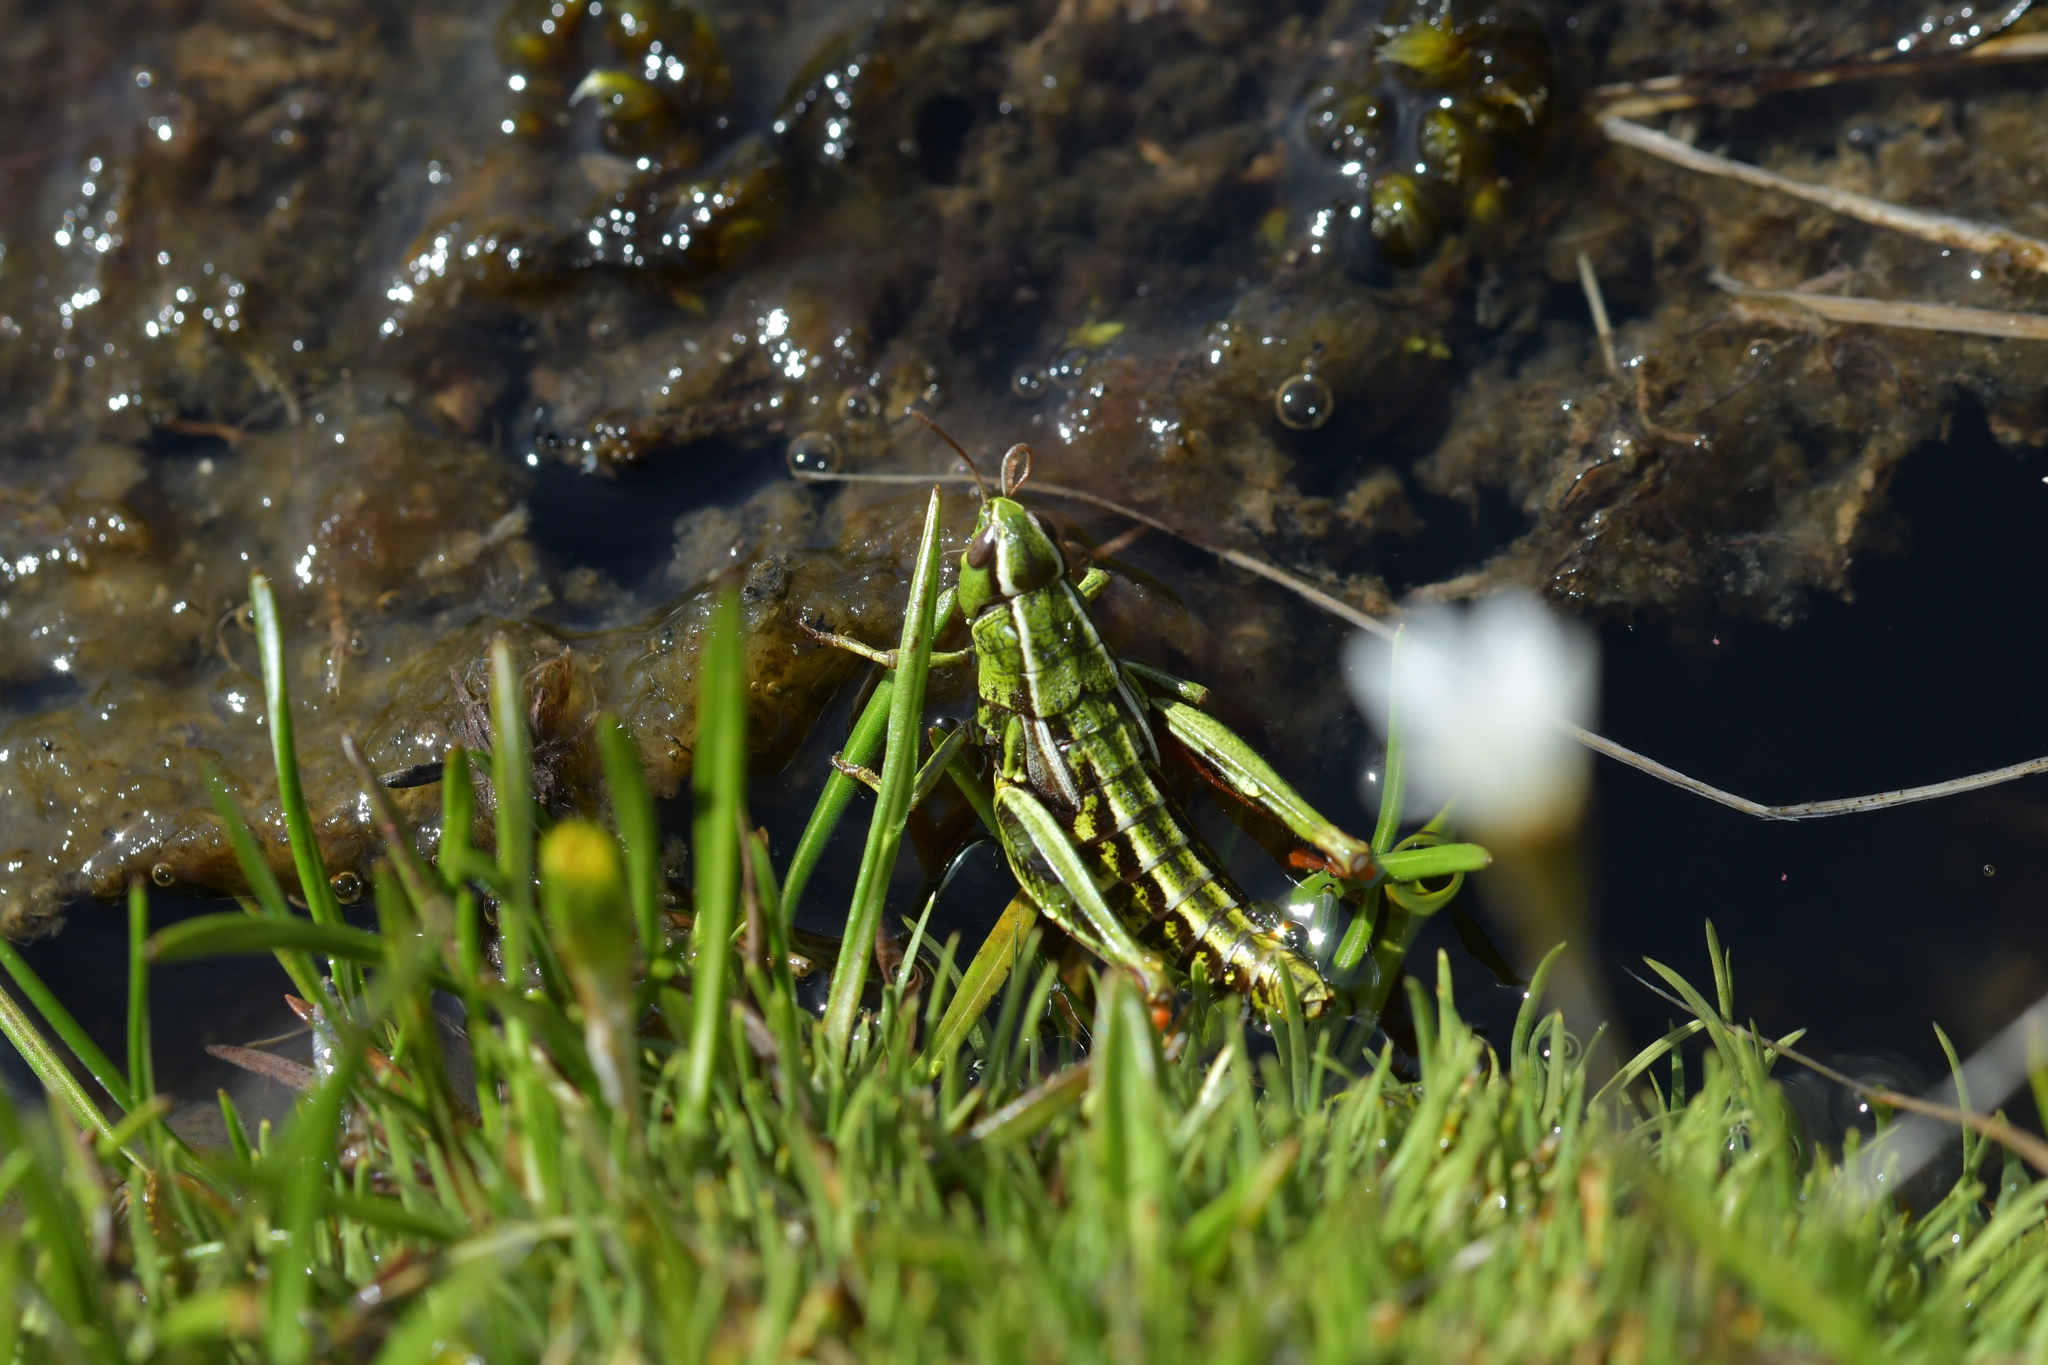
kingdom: Animalia
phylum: Arthropoda
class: Insecta
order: Orthoptera
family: Acrididae
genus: Sigaus
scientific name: Sigaus
